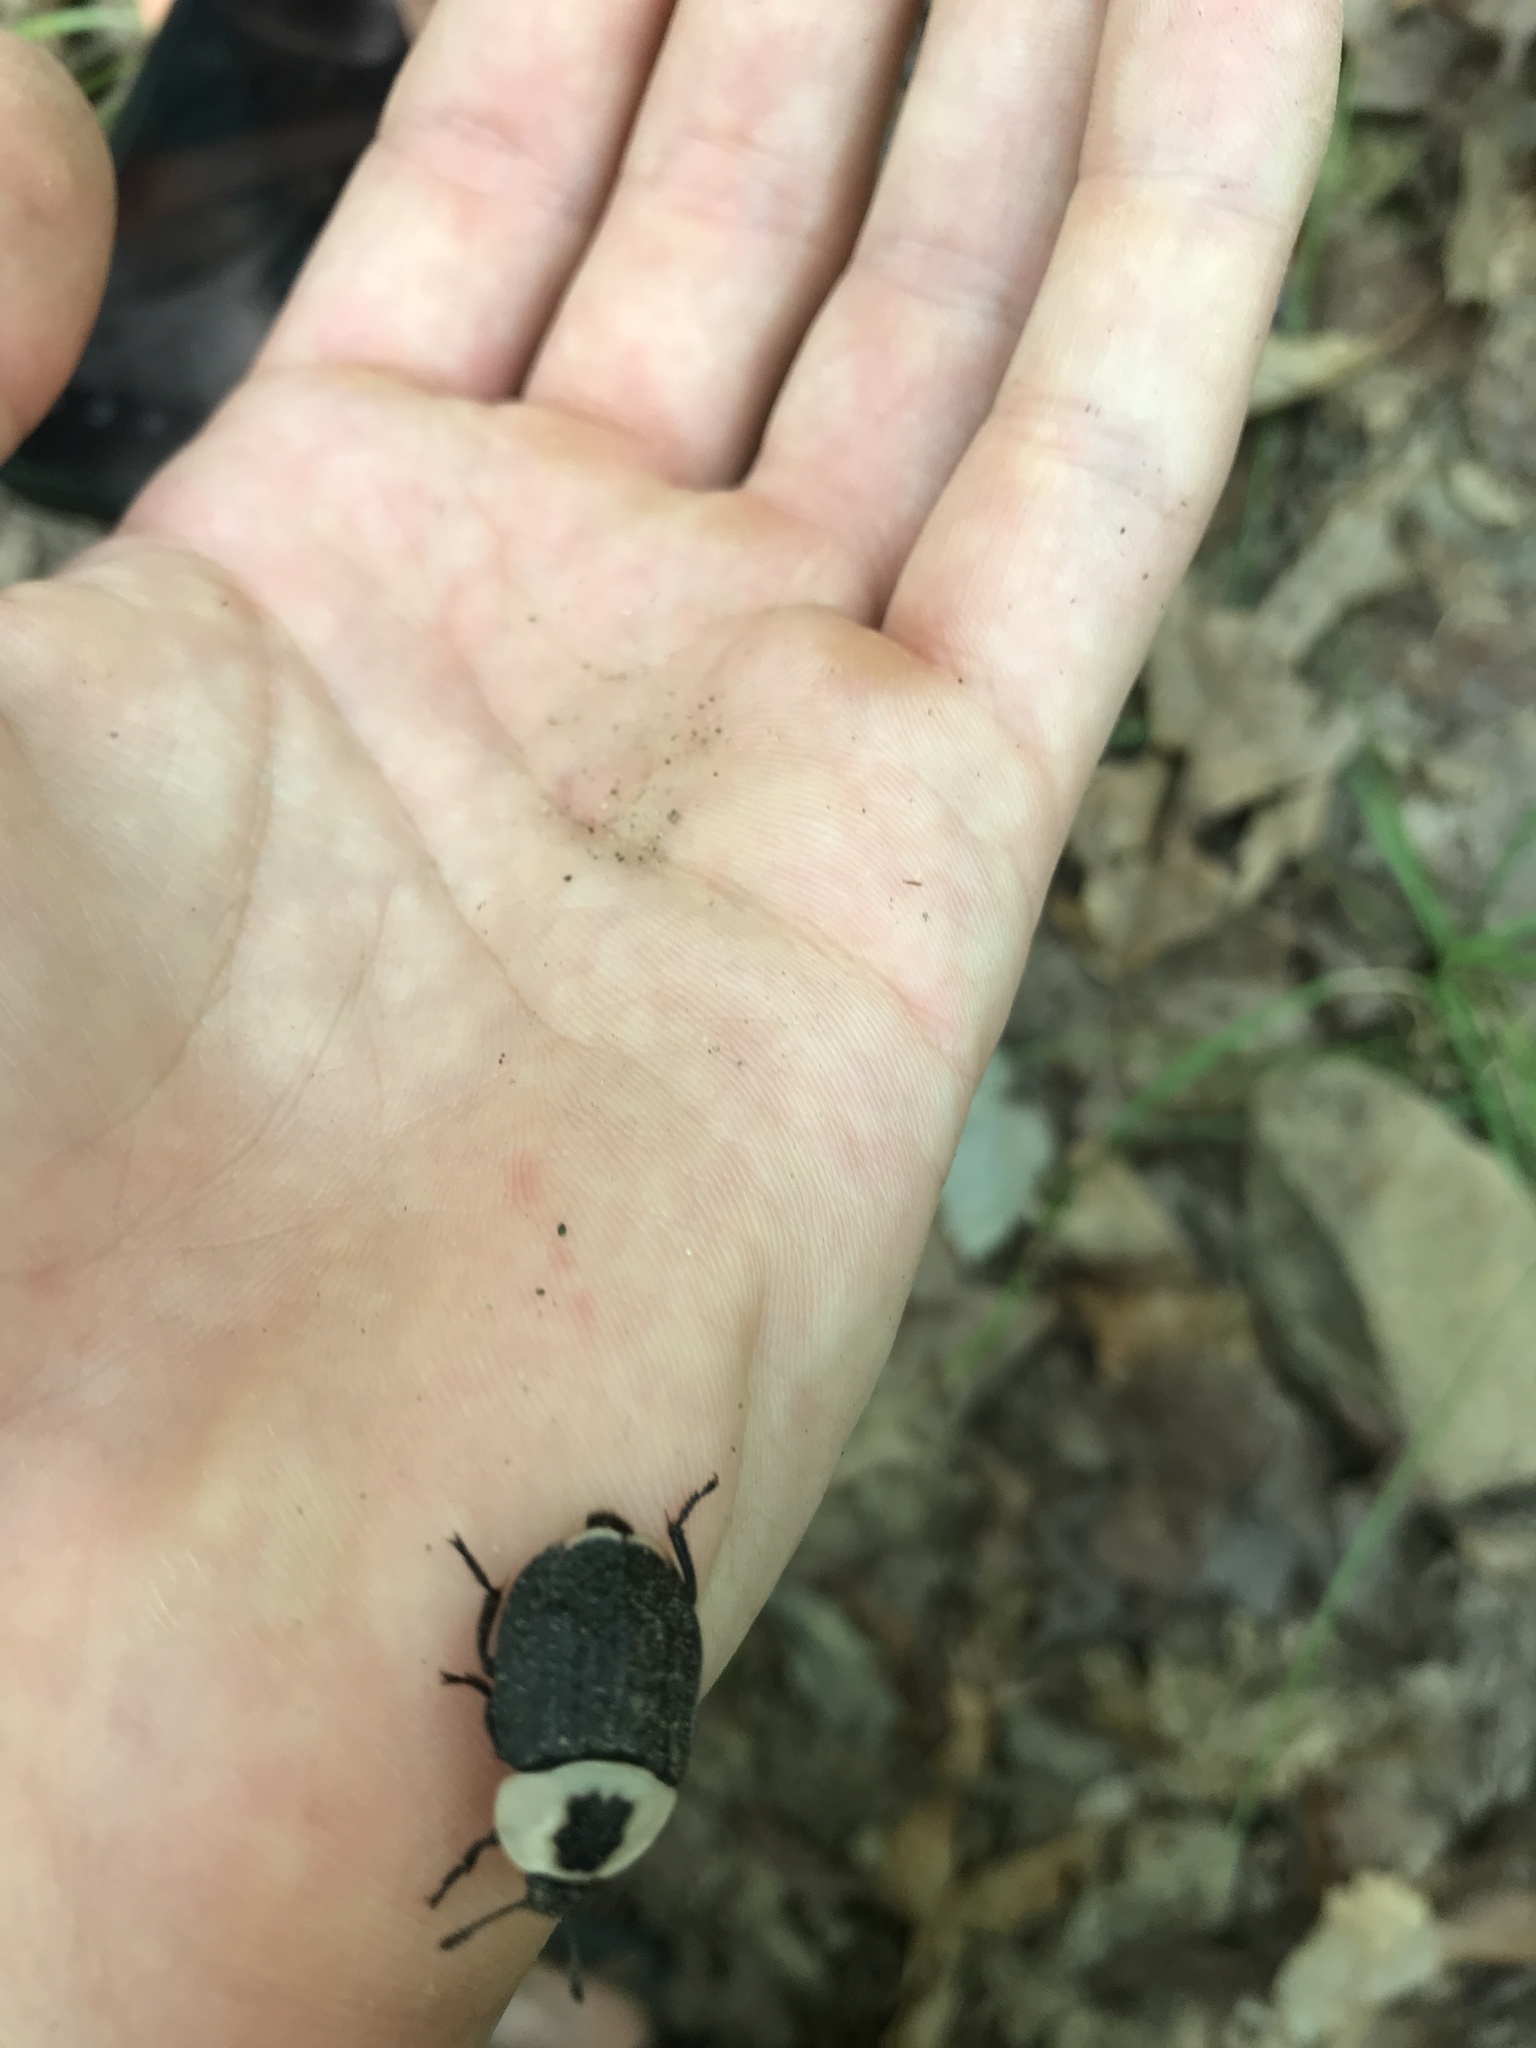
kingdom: Animalia
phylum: Arthropoda
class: Insecta
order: Coleoptera
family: Staphylinidae
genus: Necrophila
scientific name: Necrophila americana
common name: American carrion beetle
